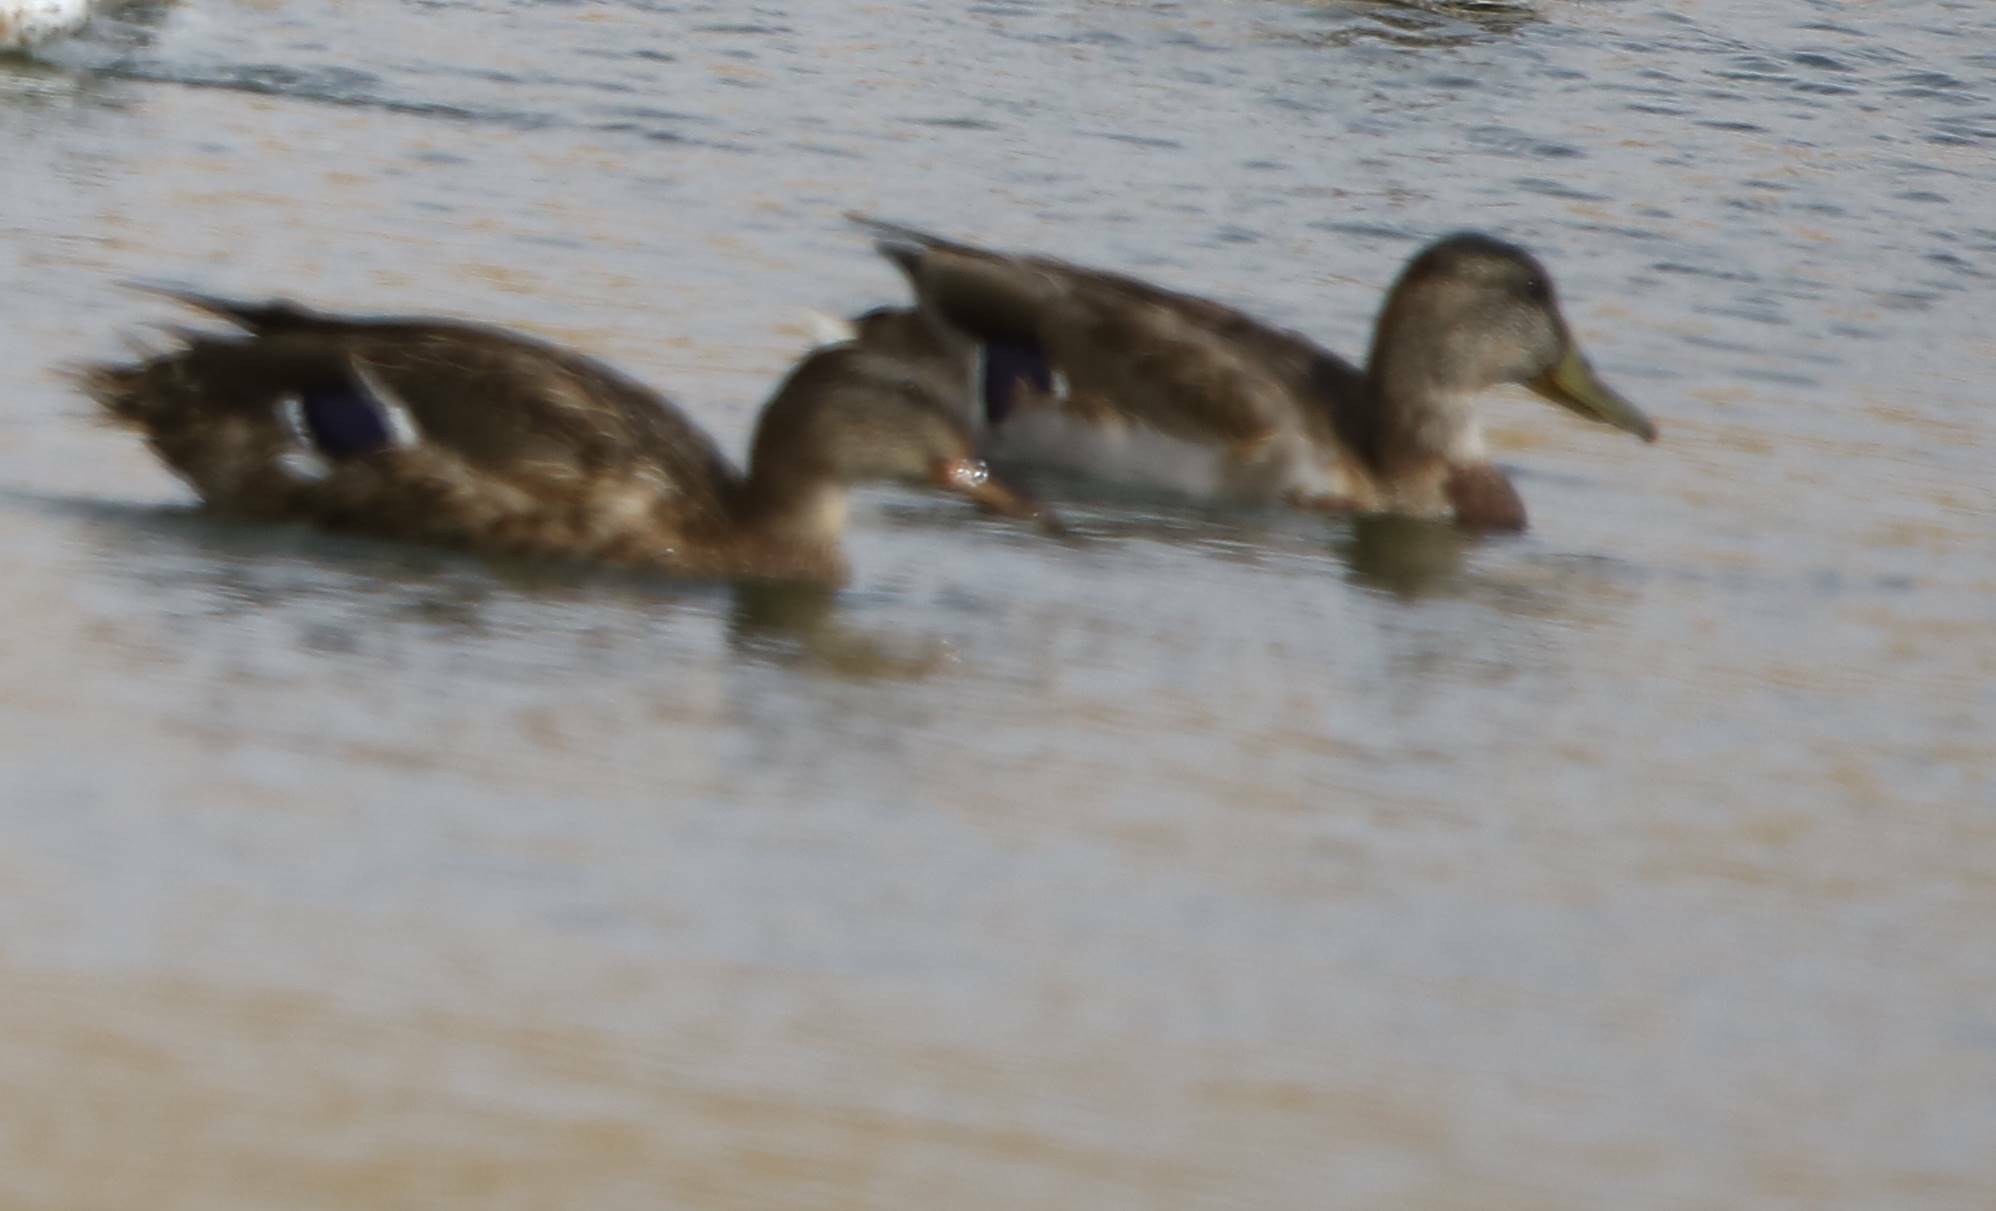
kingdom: Animalia
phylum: Chordata
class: Aves
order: Anseriformes
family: Anatidae
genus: Anas
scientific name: Anas platyrhynchos
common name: Mallard
